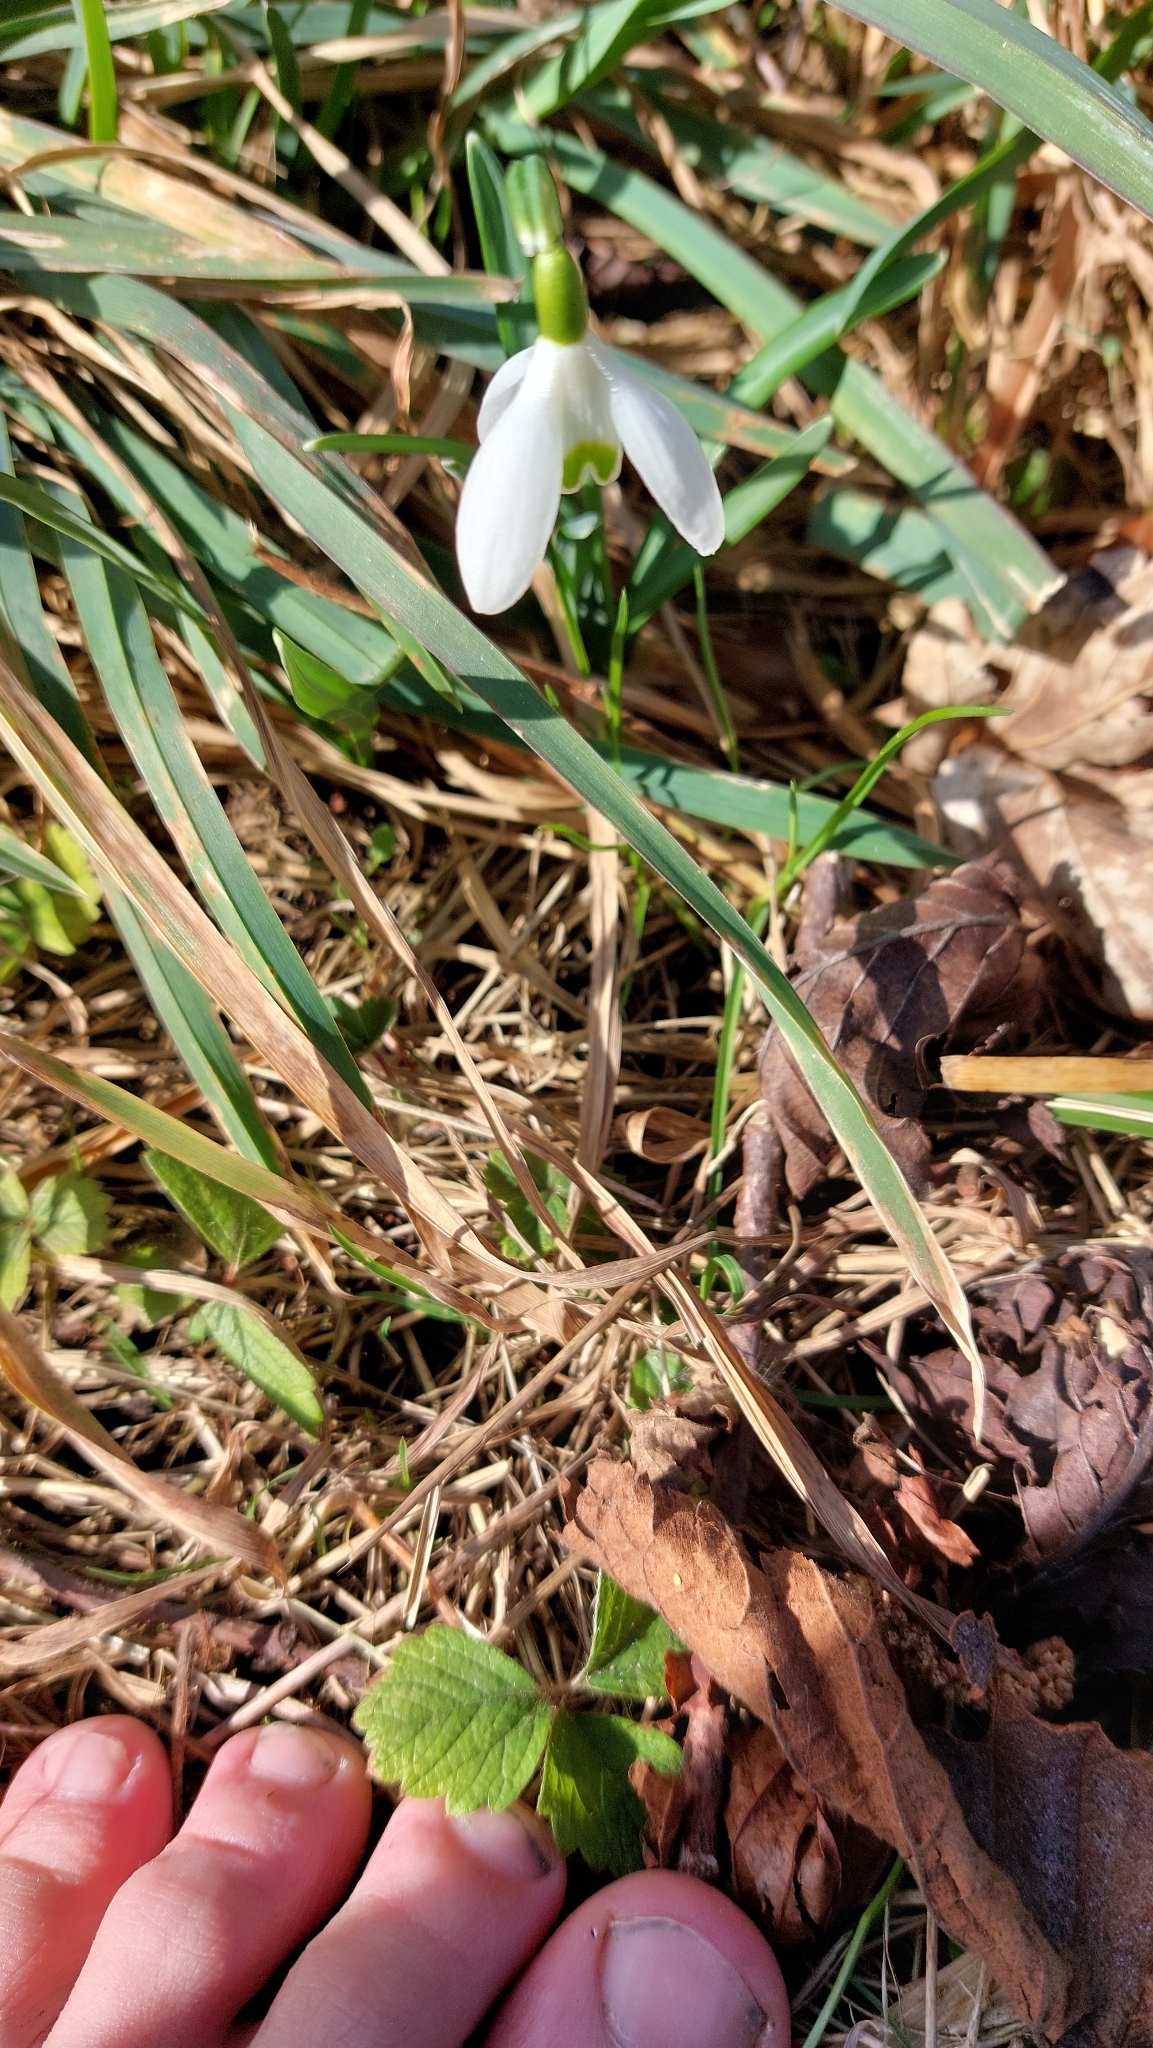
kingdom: Plantae
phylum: Tracheophyta
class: Liliopsida
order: Asparagales
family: Amaryllidaceae
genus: Galanthus
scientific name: Galanthus nivalis
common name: Snowdrop
